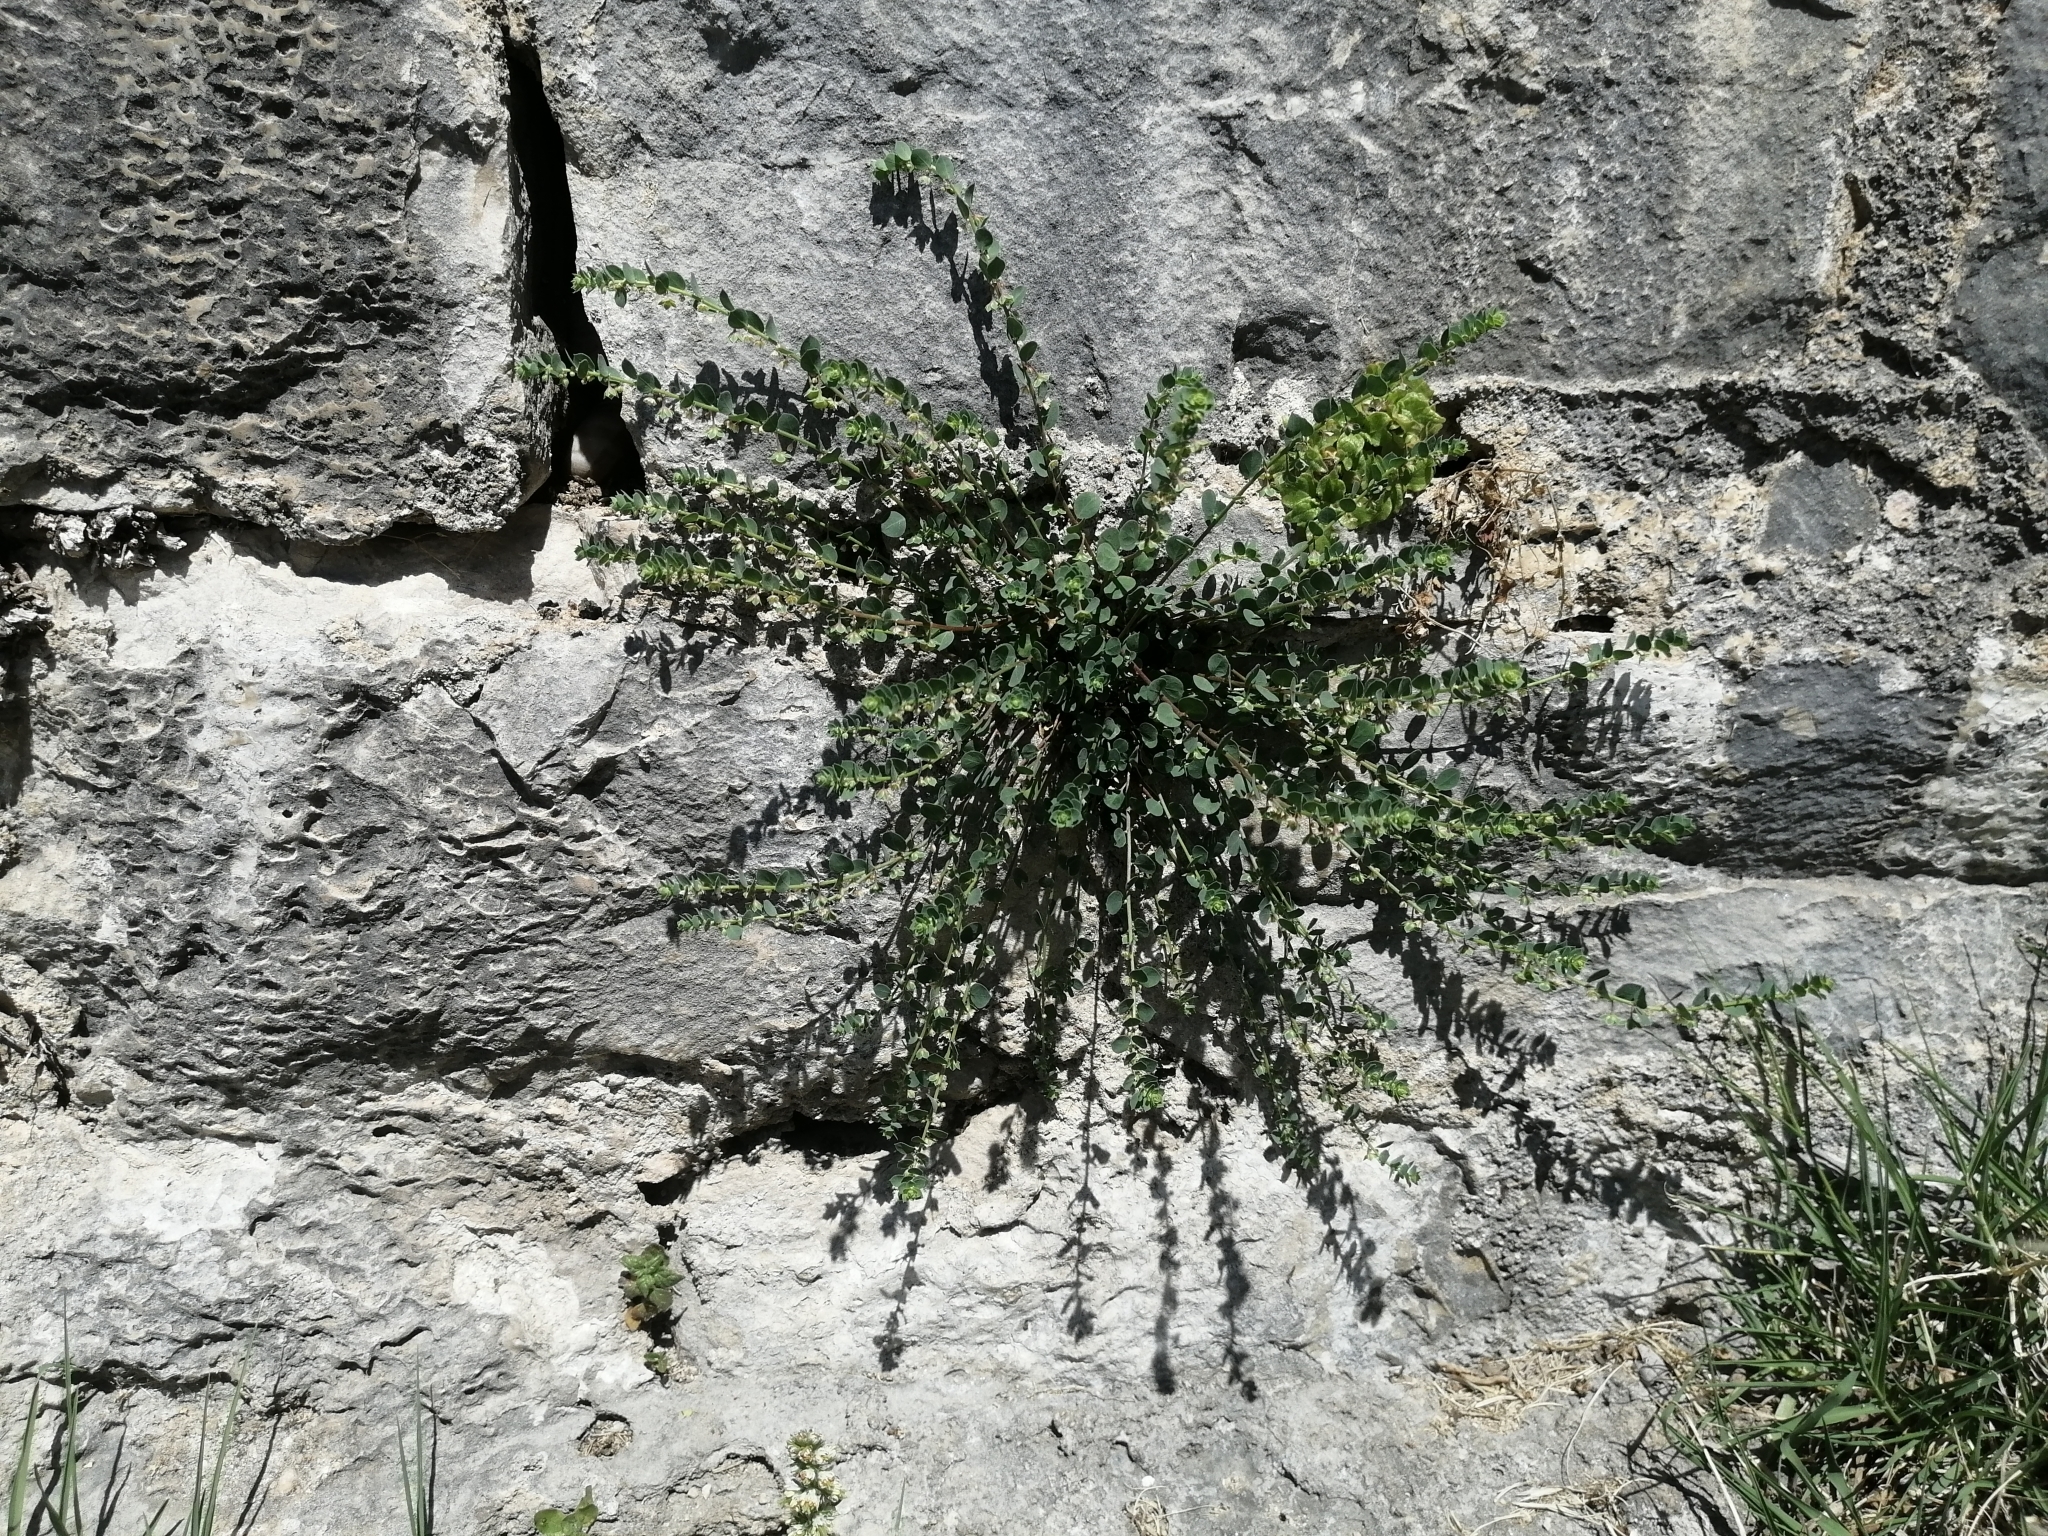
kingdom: Plantae
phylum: Tracheophyta
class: Magnoliopsida
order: Malpighiales
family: Phyllanthaceae
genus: Andrachne
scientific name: Andrachne telephioides
